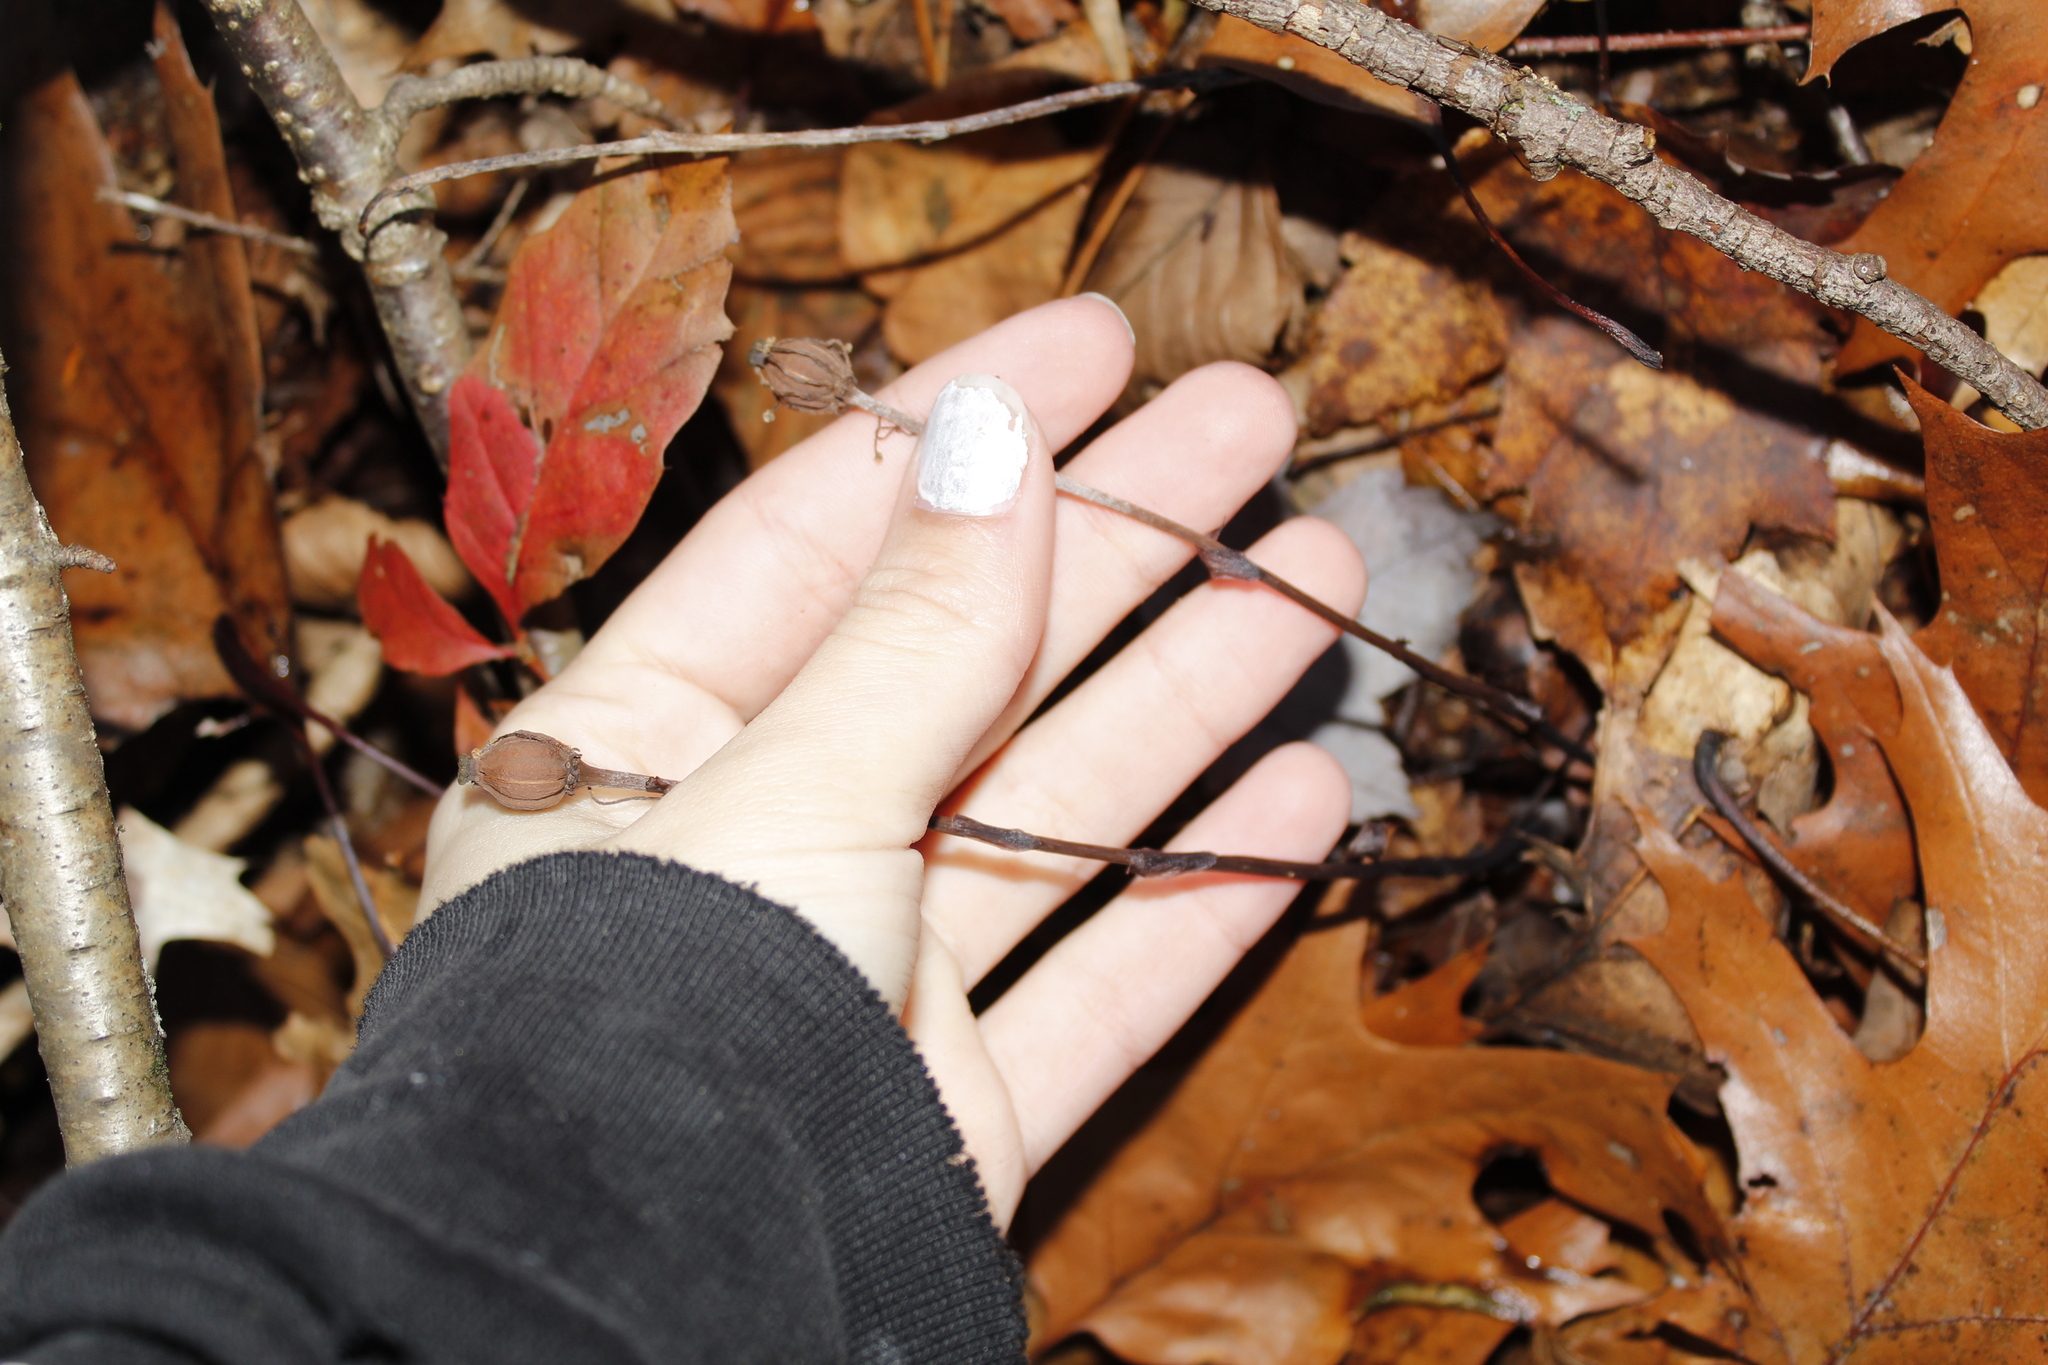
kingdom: Plantae
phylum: Tracheophyta
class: Magnoliopsida
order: Ericales
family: Ericaceae
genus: Monotropa
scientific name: Monotropa uniflora
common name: Convulsion root
